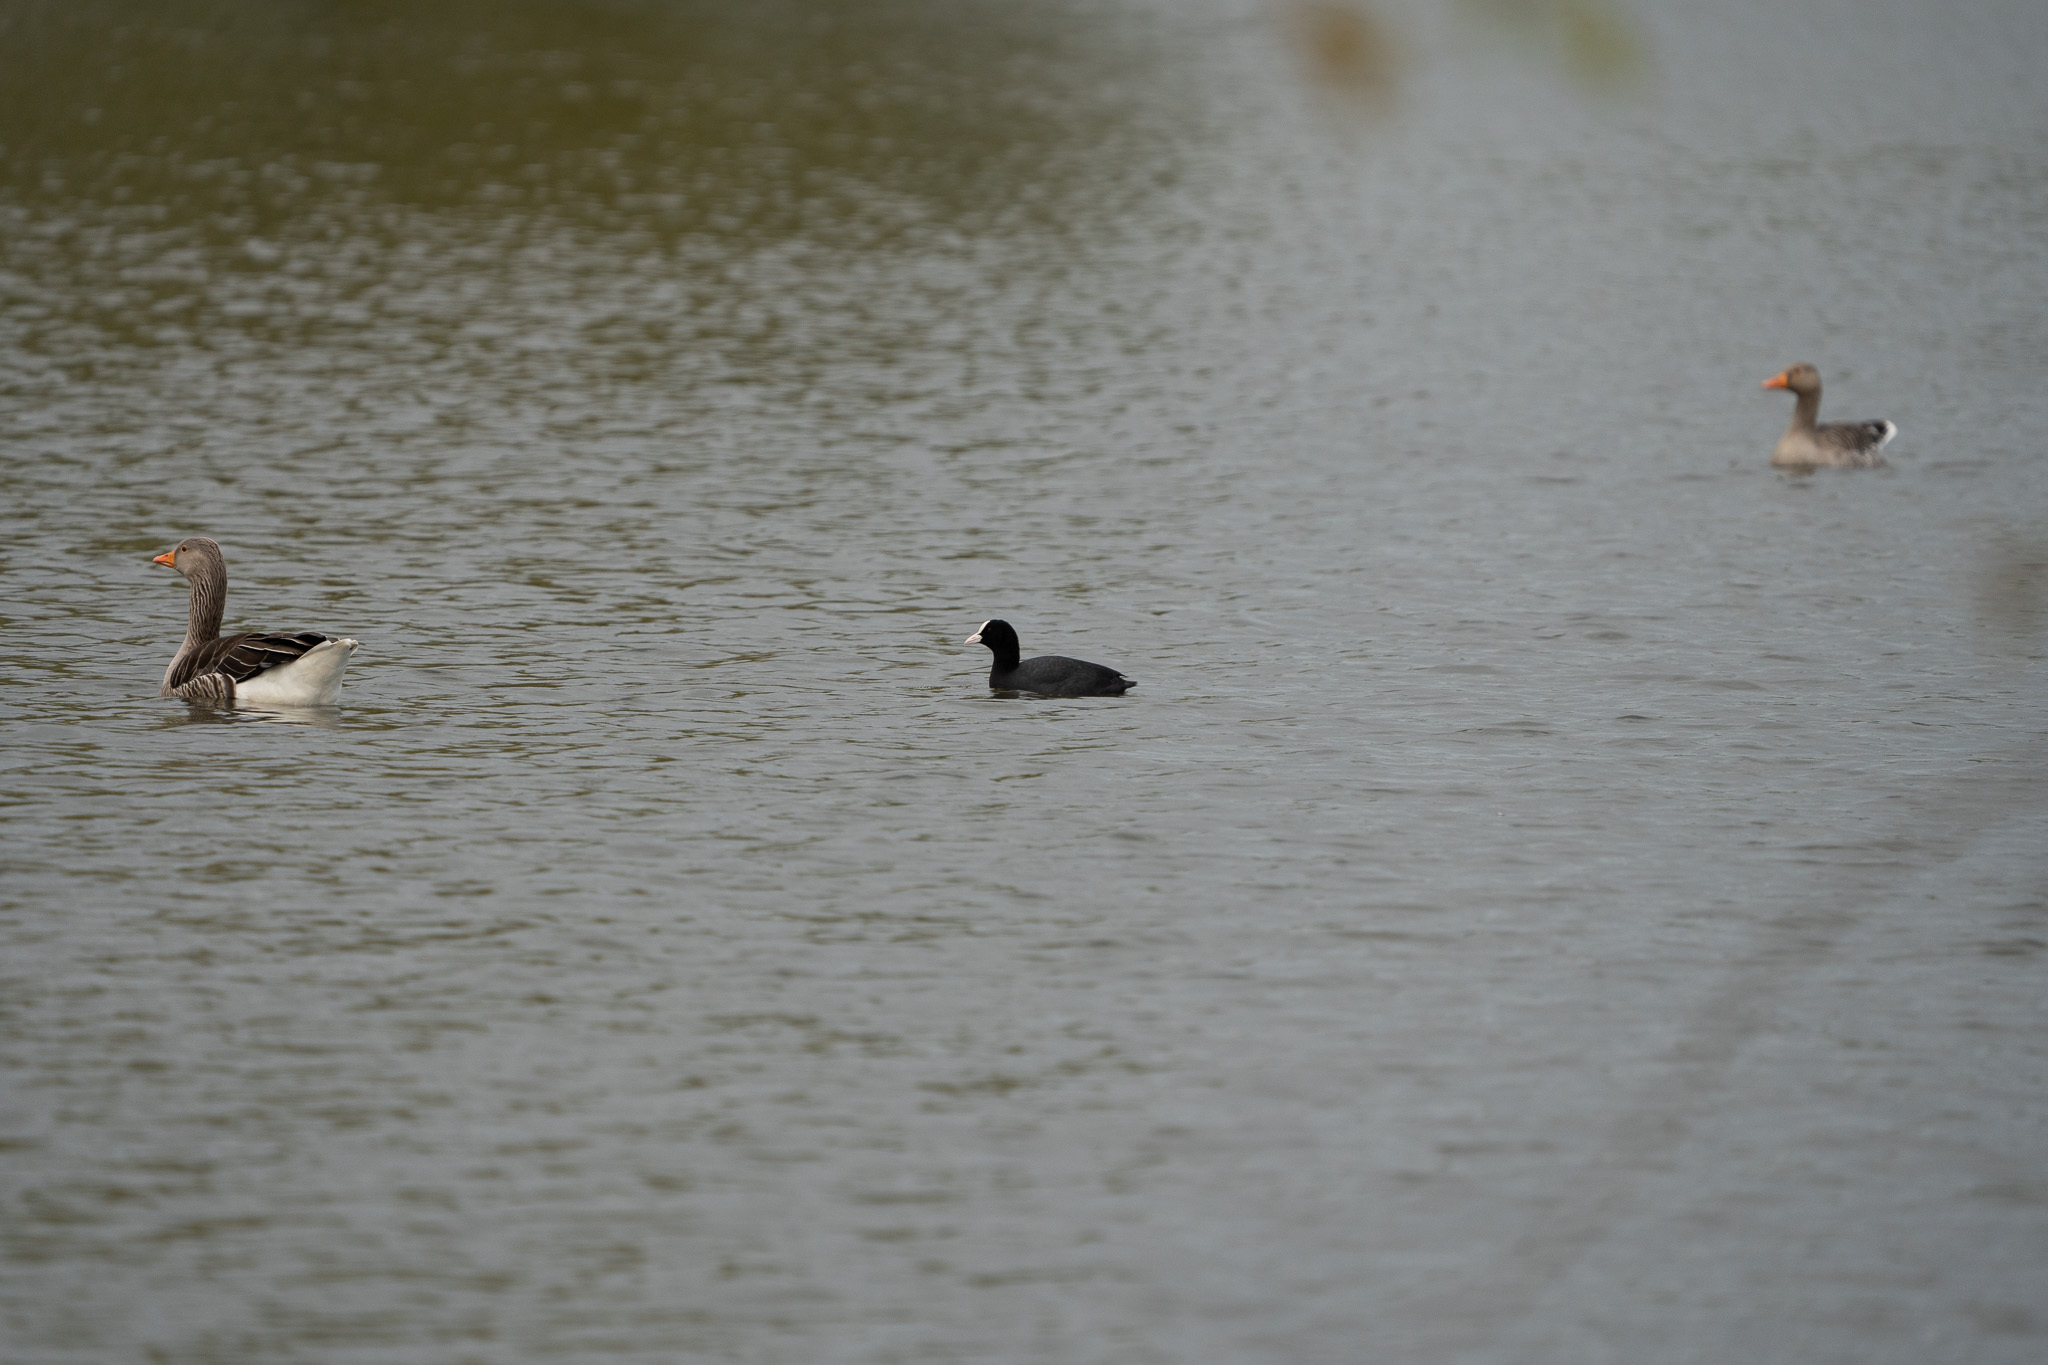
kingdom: Animalia
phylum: Chordata
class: Aves
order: Gruiformes
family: Rallidae
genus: Fulica
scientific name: Fulica atra
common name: Eurasian coot
